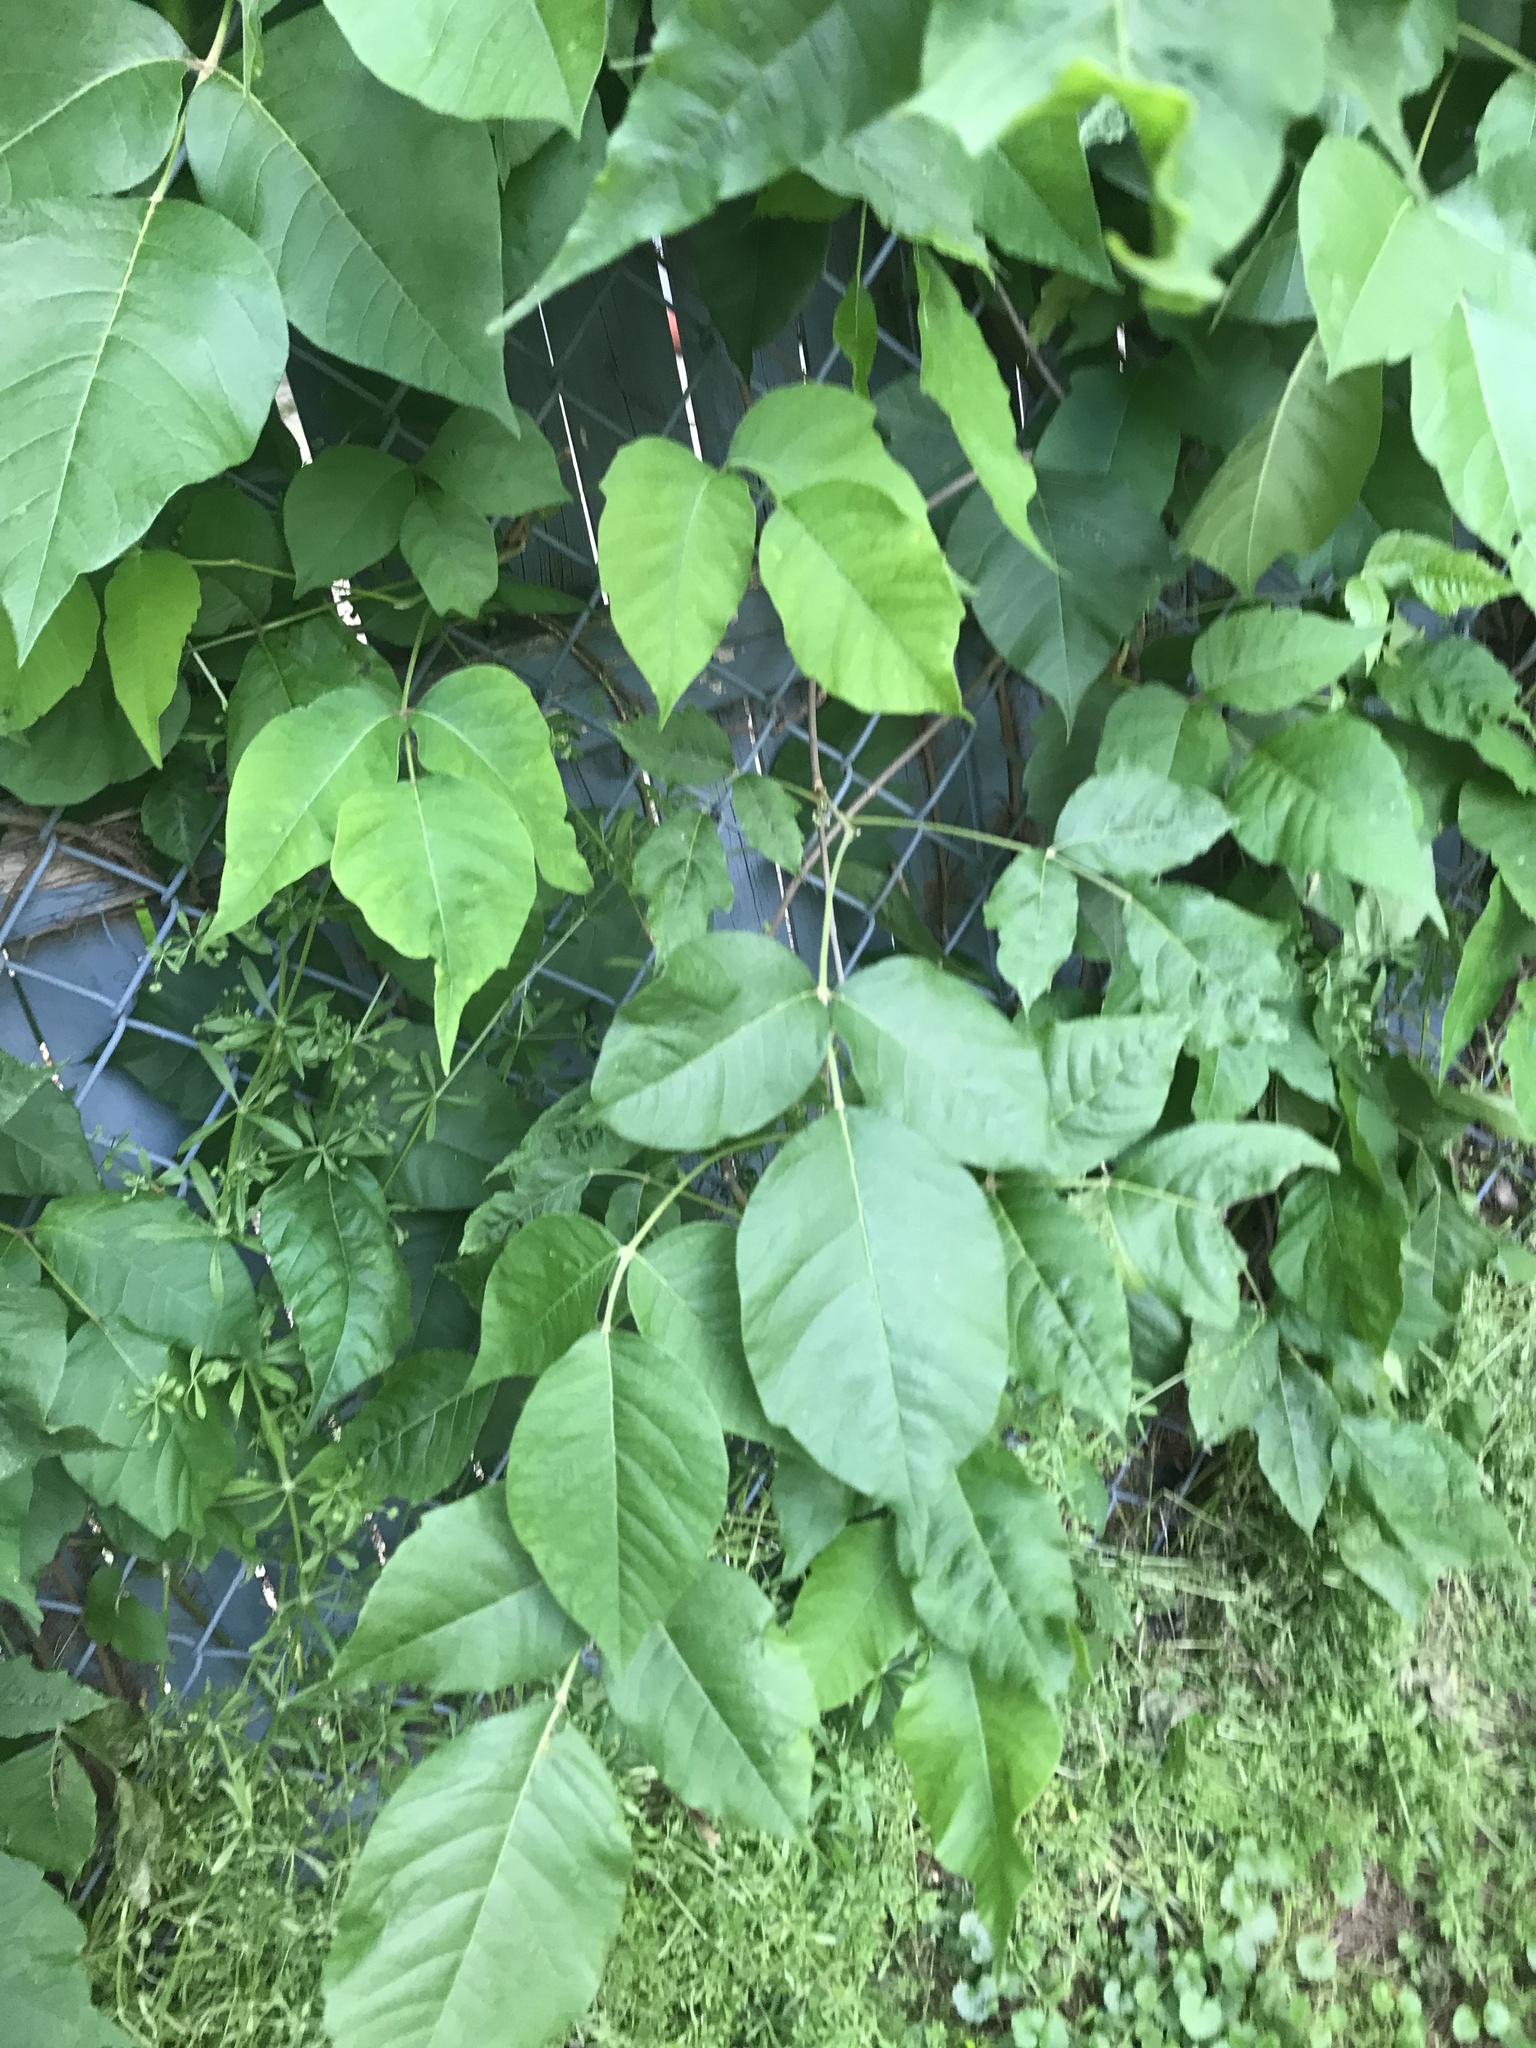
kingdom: Plantae
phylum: Tracheophyta
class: Magnoliopsida
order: Sapindales
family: Anacardiaceae
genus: Toxicodendron
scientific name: Toxicodendron radicans
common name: Poison ivy
